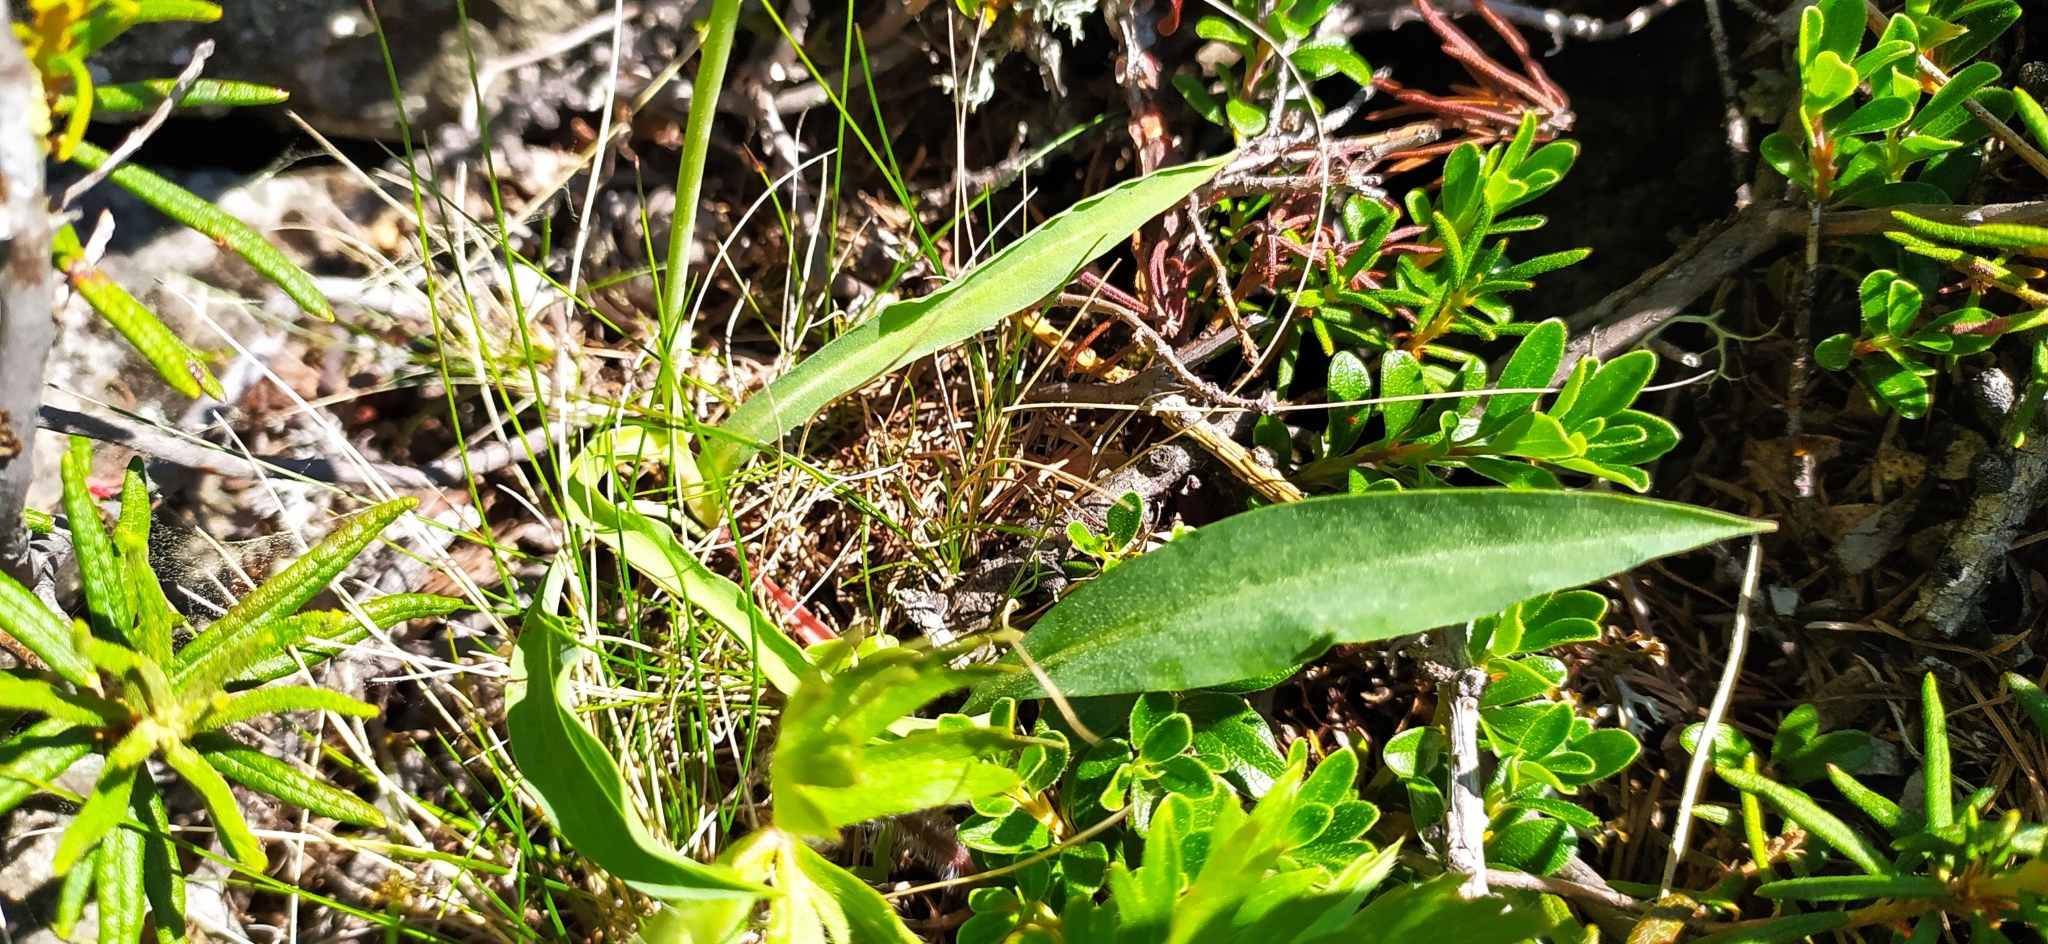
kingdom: Plantae
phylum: Tracheophyta
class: Magnoliopsida
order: Asterales
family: Asteraceae
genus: Scorzonera
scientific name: Scorzonera glabra
